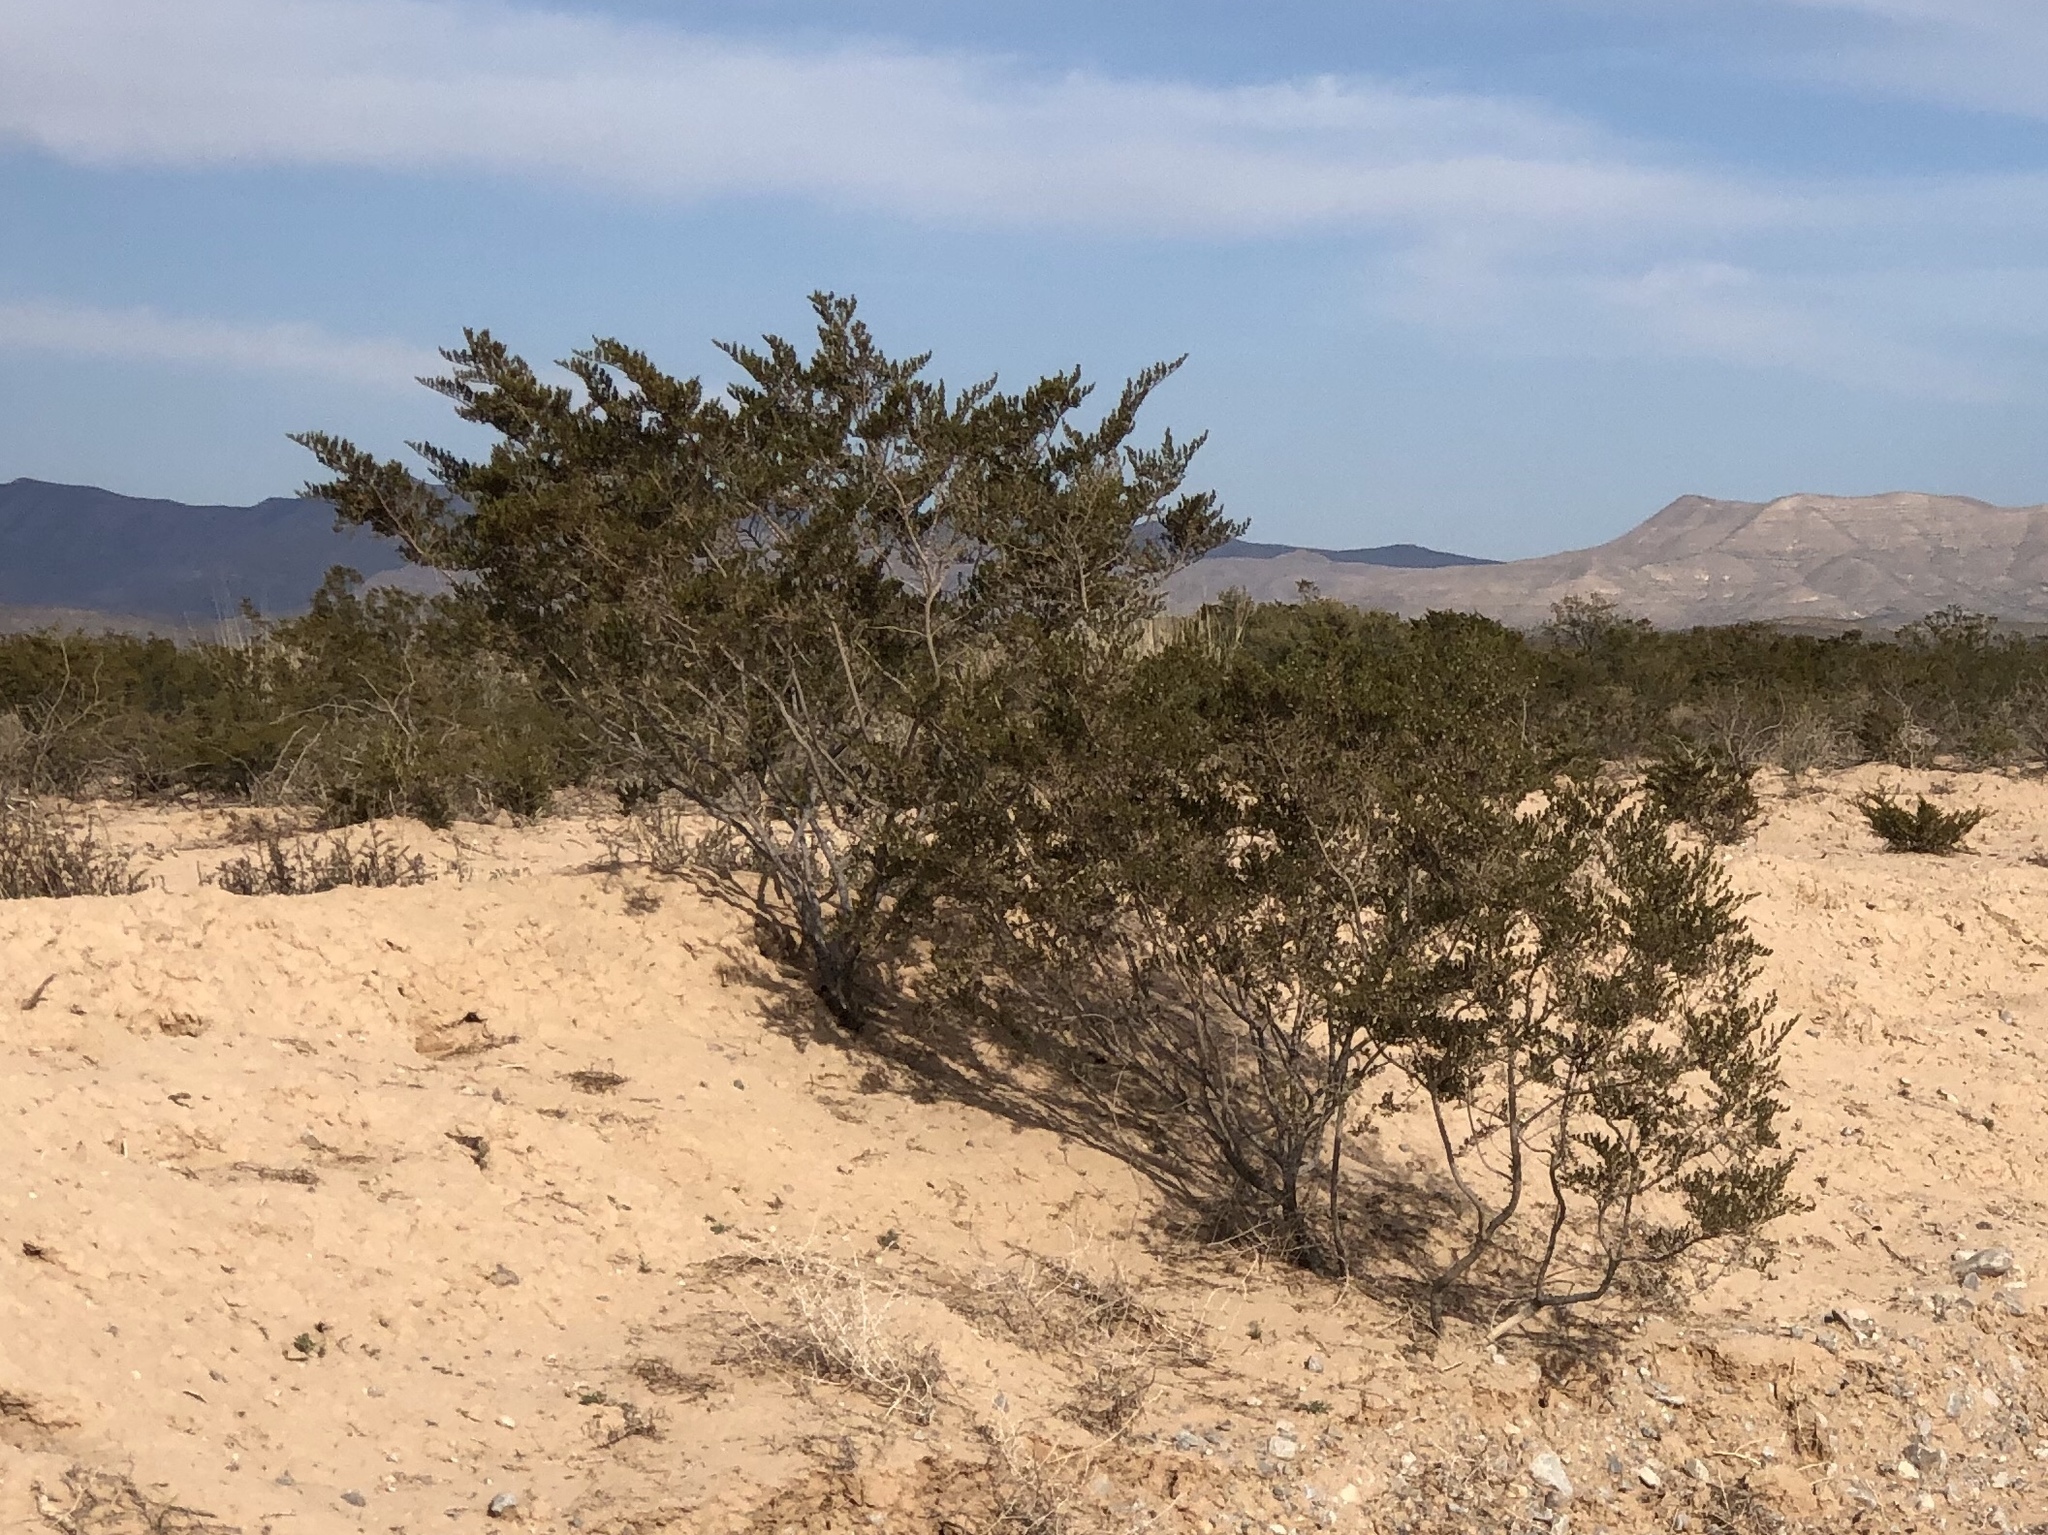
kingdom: Plantae
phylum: Tracheophyta
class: Magnoliopsida
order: Zygophyllales
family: Zygophyllaceae
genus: Larrea
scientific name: Larrea tridentata
